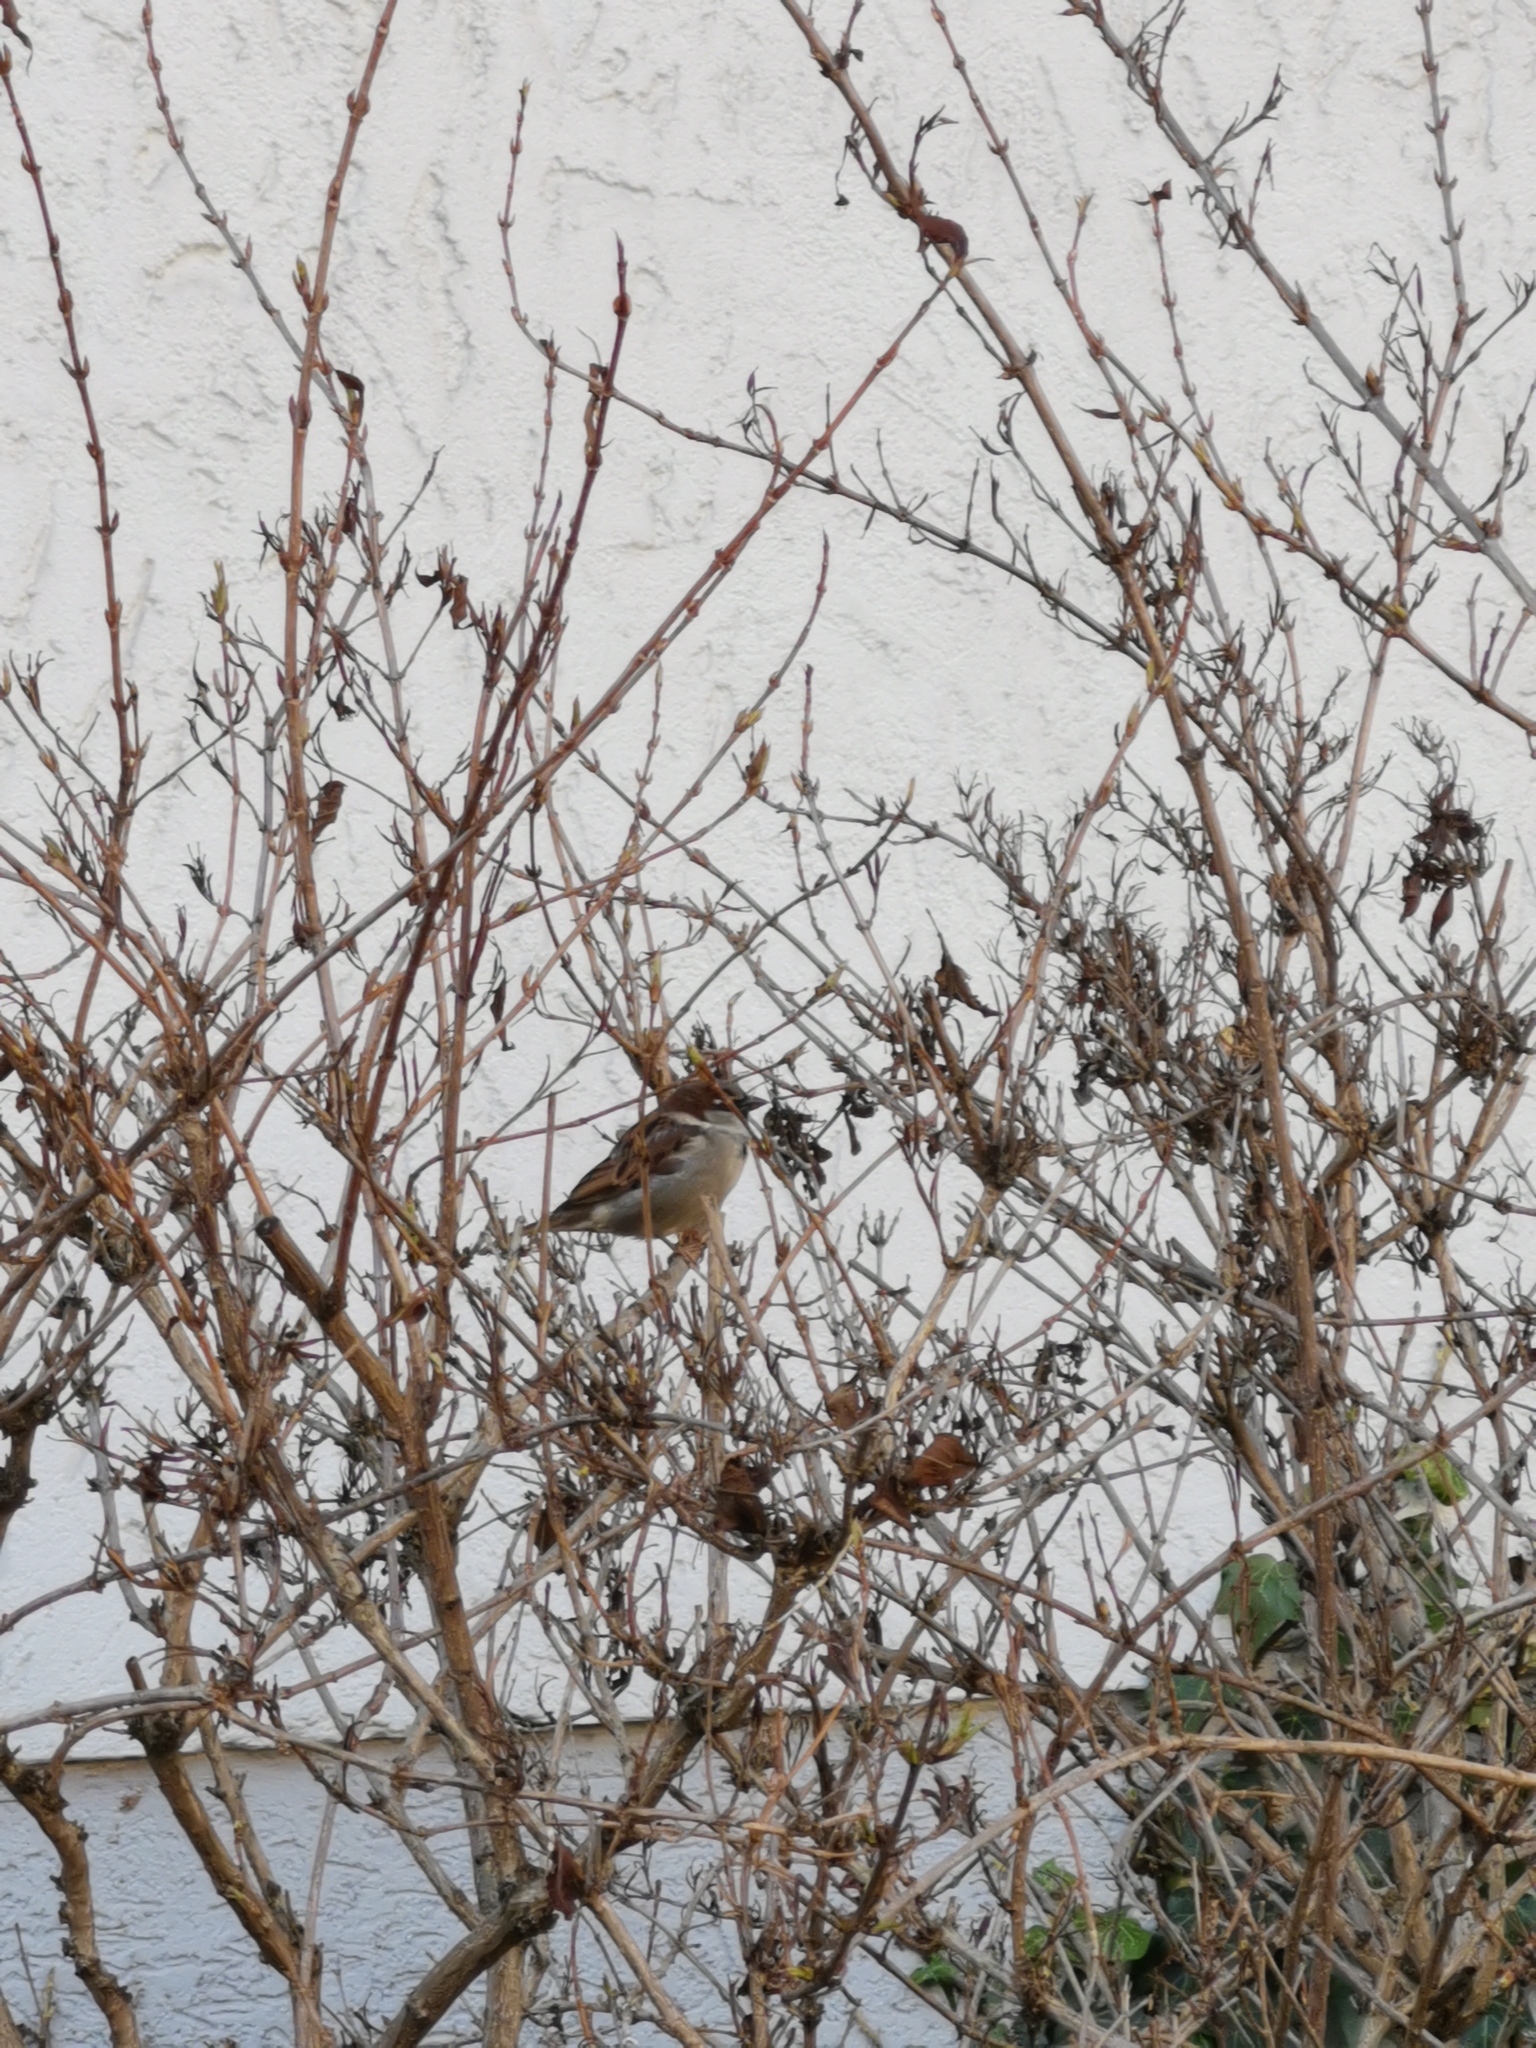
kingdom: Animalia
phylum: Chordata
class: Aves
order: Passeriformes
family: Passeridae
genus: Passer
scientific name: Passer domesticus
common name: House sparrow
